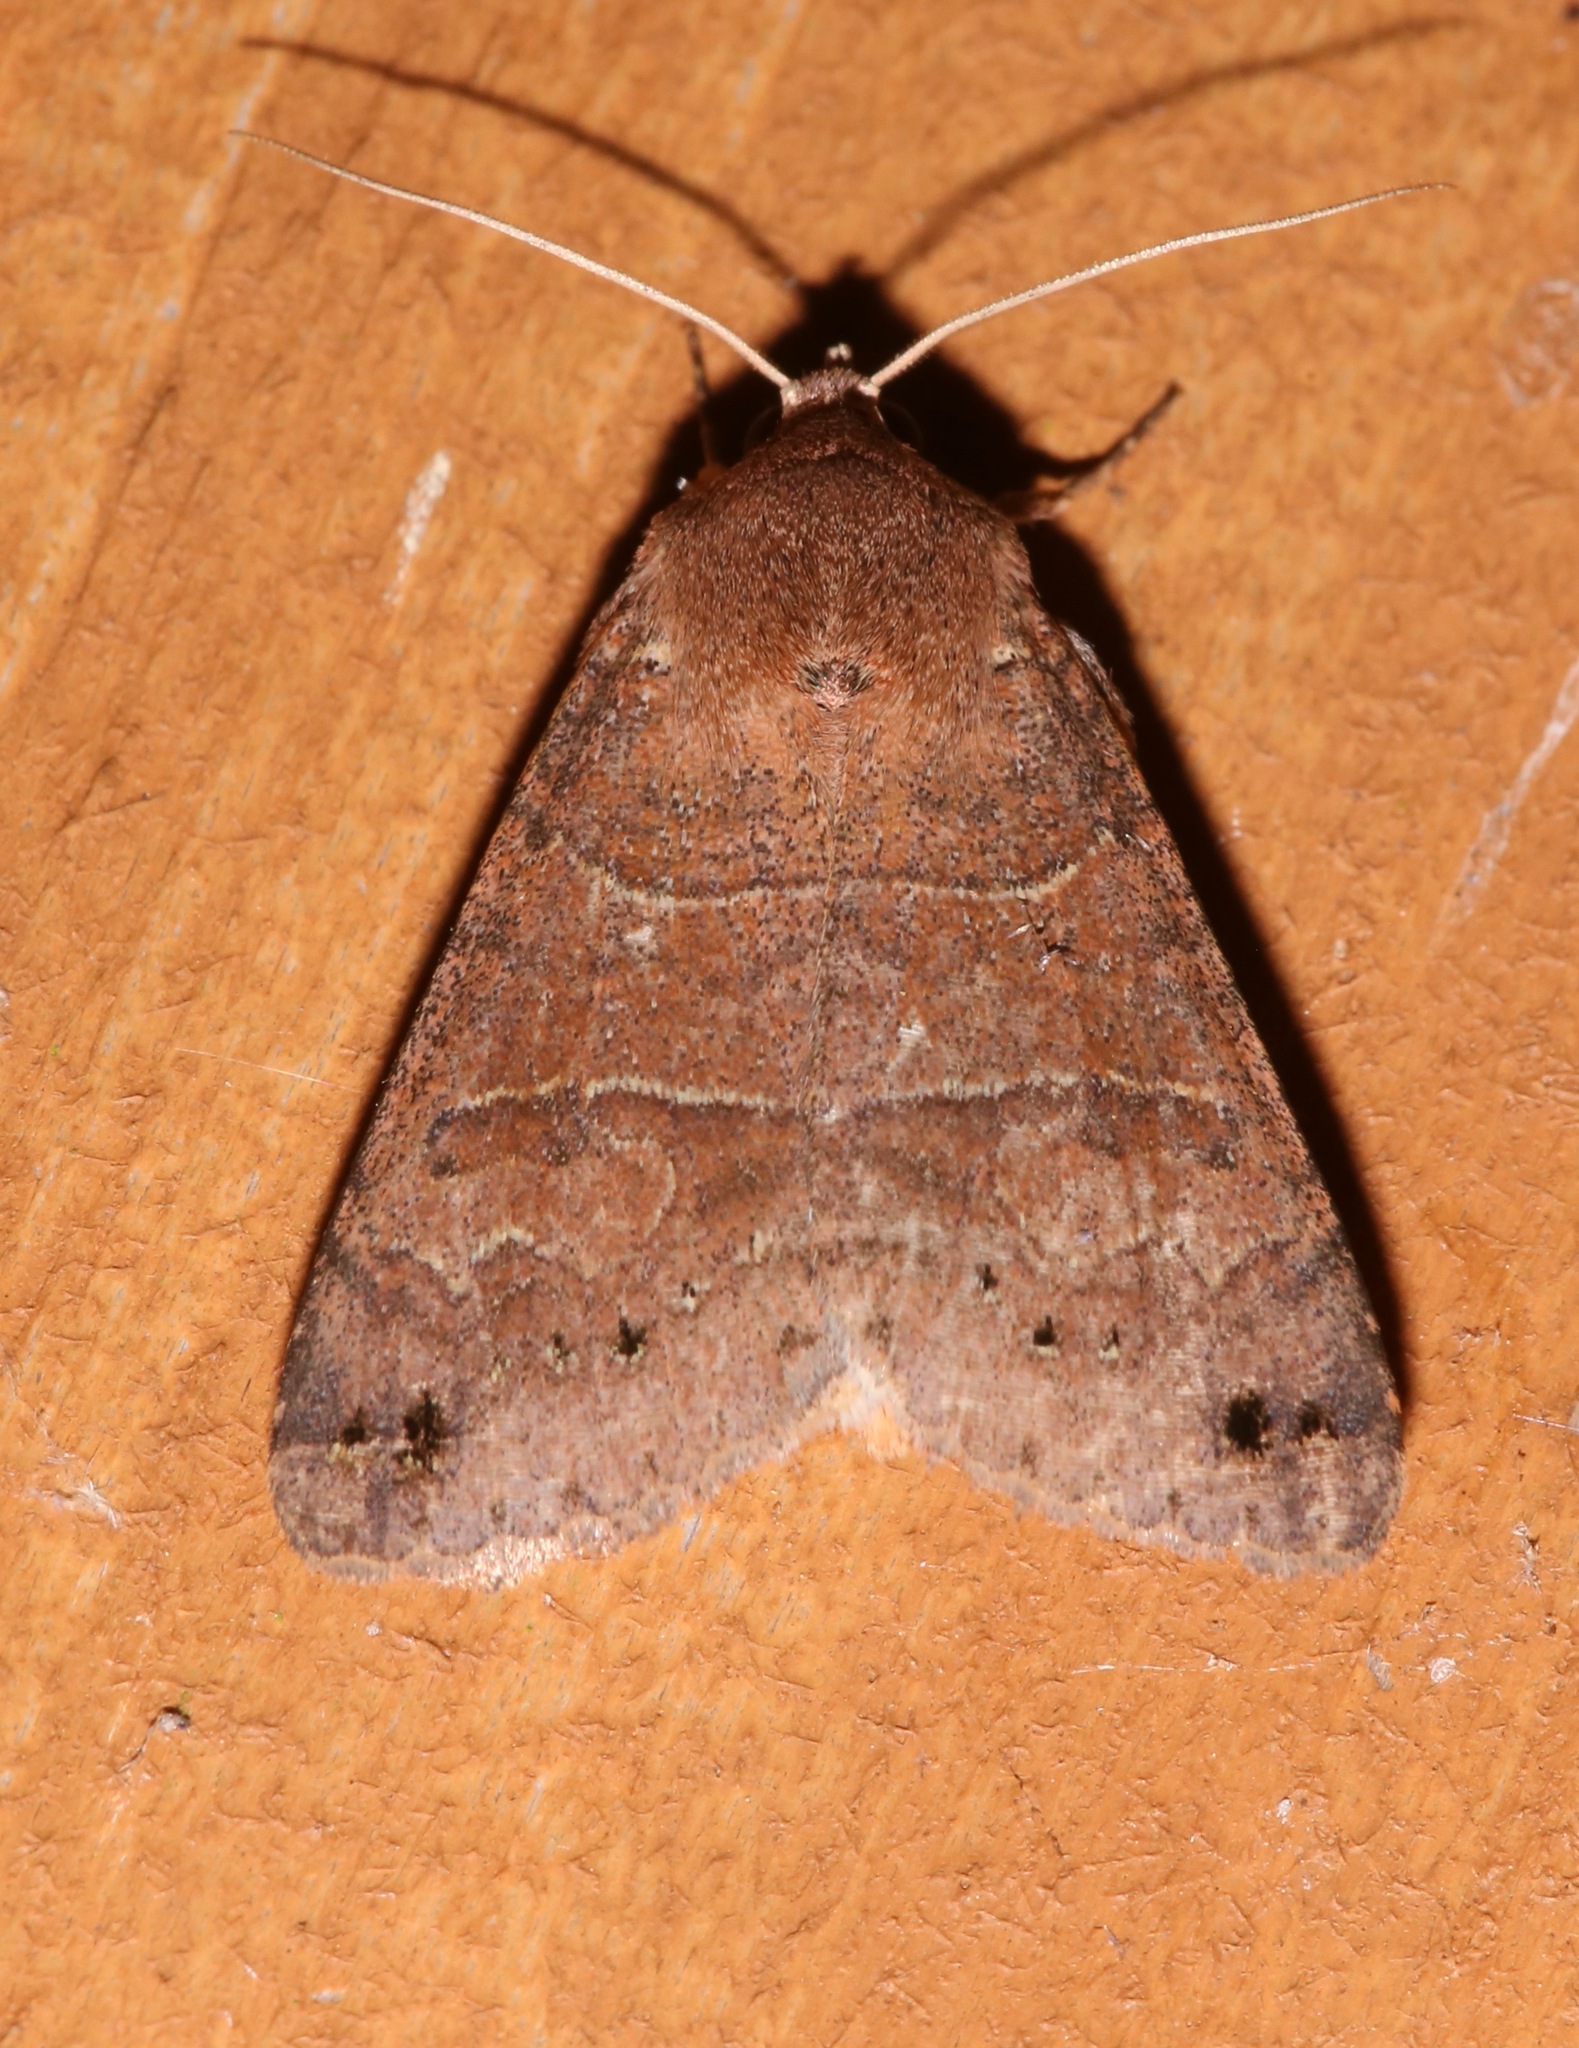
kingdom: Animalia
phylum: Arthropoda
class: Insecta
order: Lepidoptera
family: Erebidae
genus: Cissusa
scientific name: Cissusa spadix
